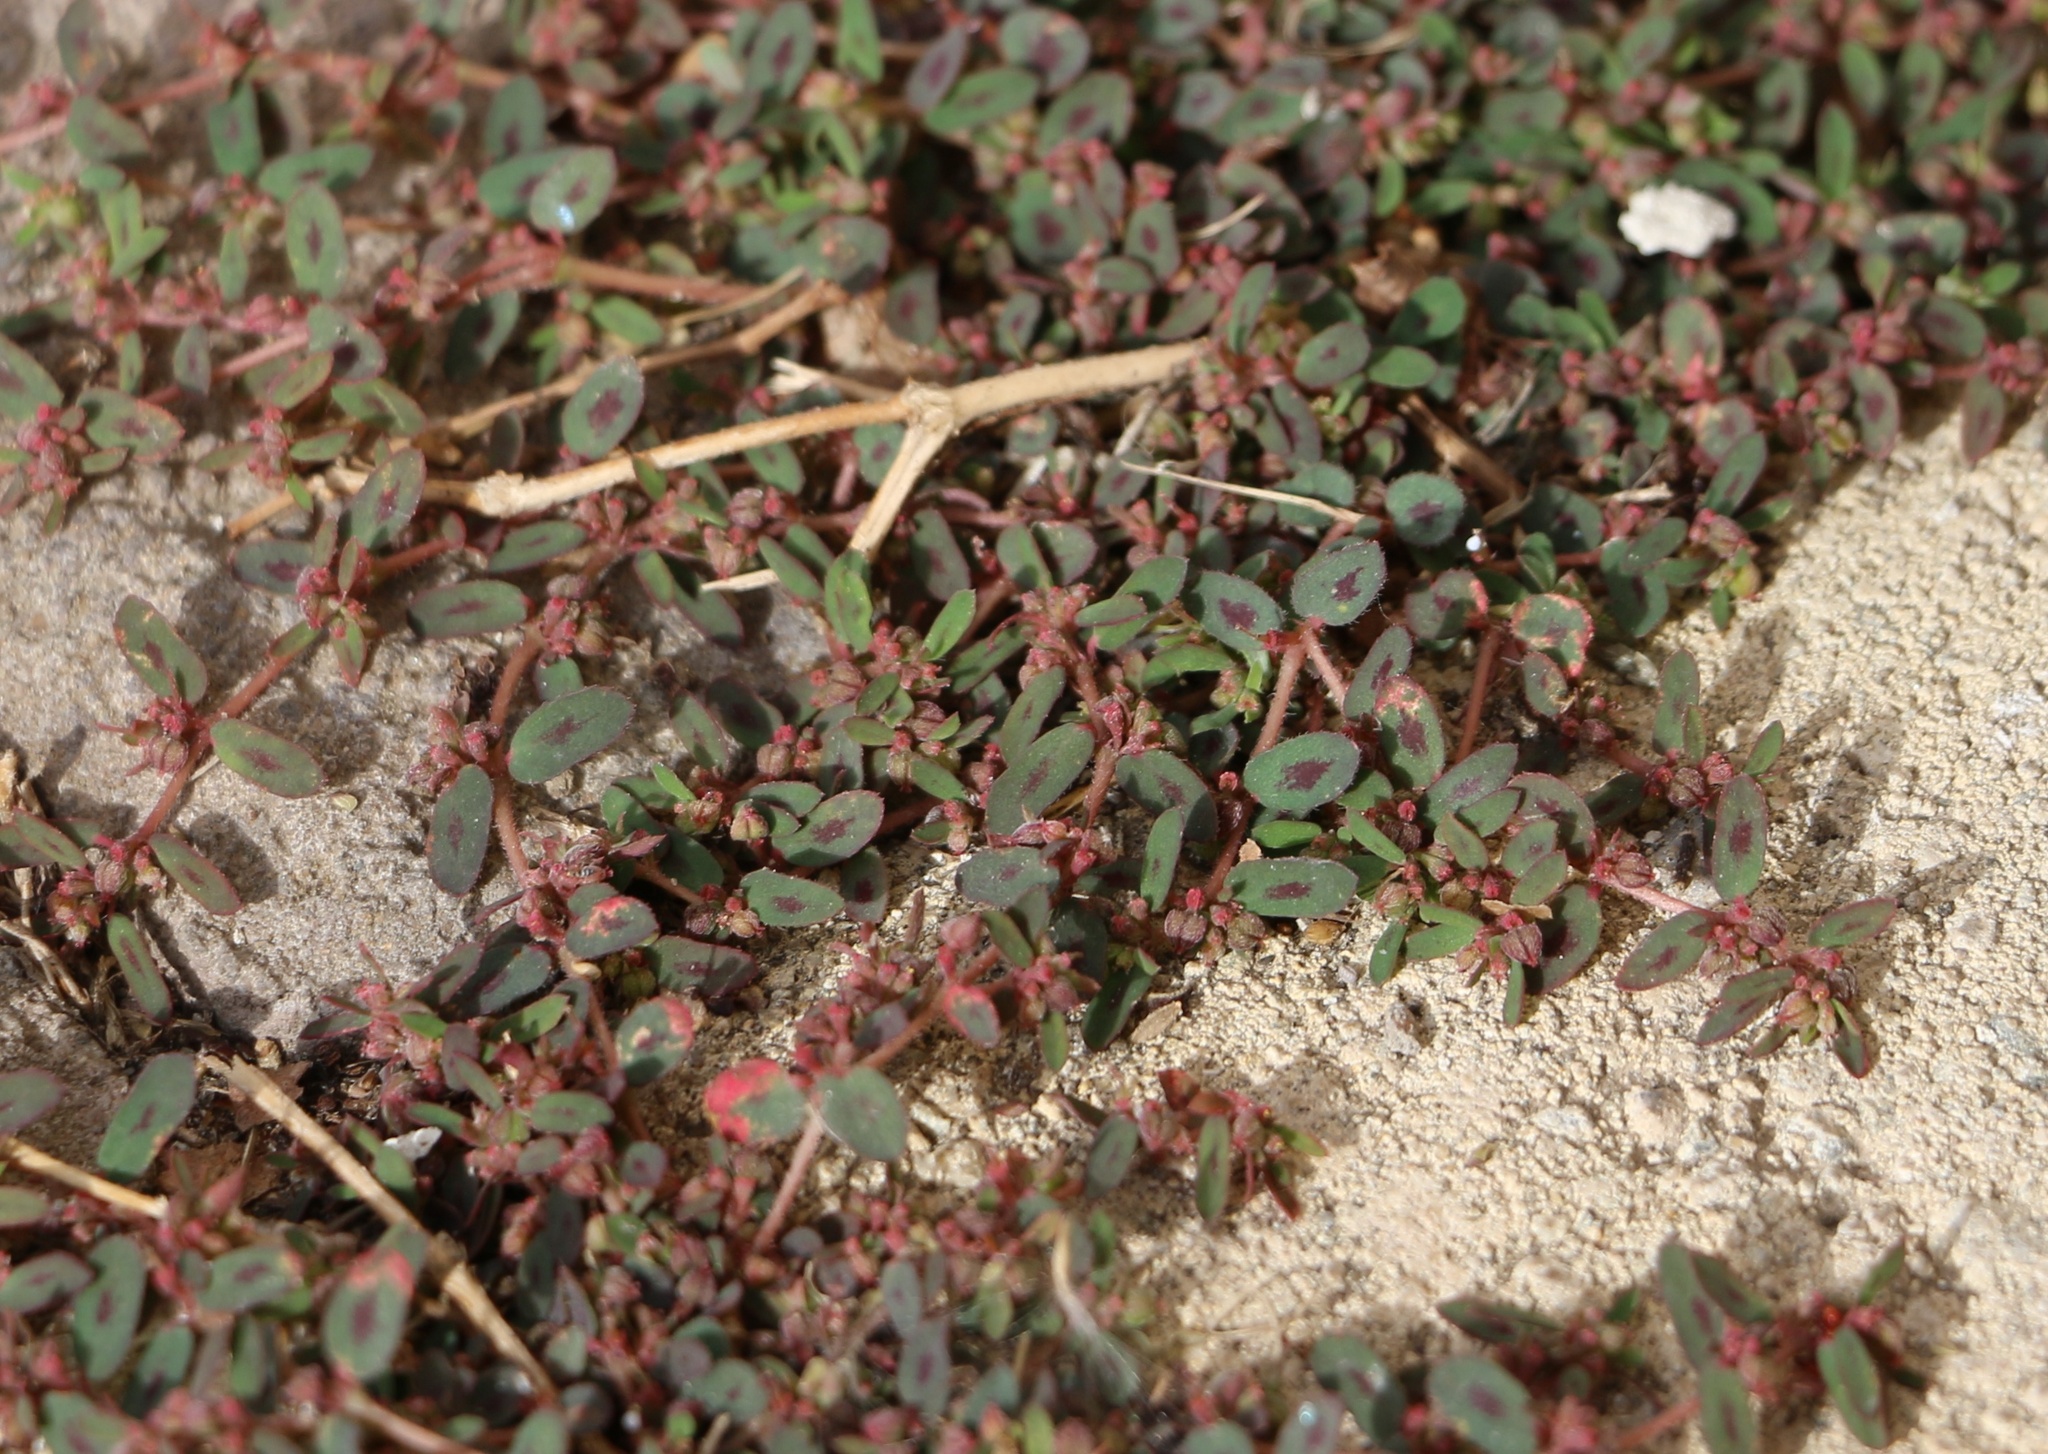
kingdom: Plantae
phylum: Tracheophyta
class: Magnoliopsida
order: Malpighiales
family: Euphorbiaceae
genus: Euphorbia
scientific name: Euphorbia maculata
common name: Spotted spurge
